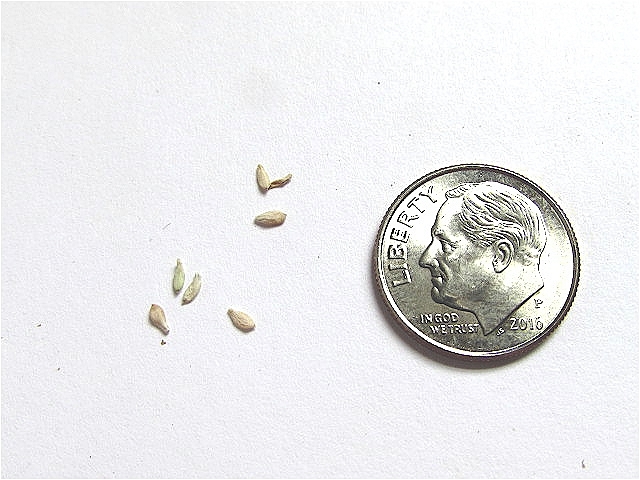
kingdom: Animalia
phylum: Chordata
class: Mammalia
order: Lagomorpha
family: Leporidae
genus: Sylvilagus
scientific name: Sylvilagus floridanus
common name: Eastern cottontail
